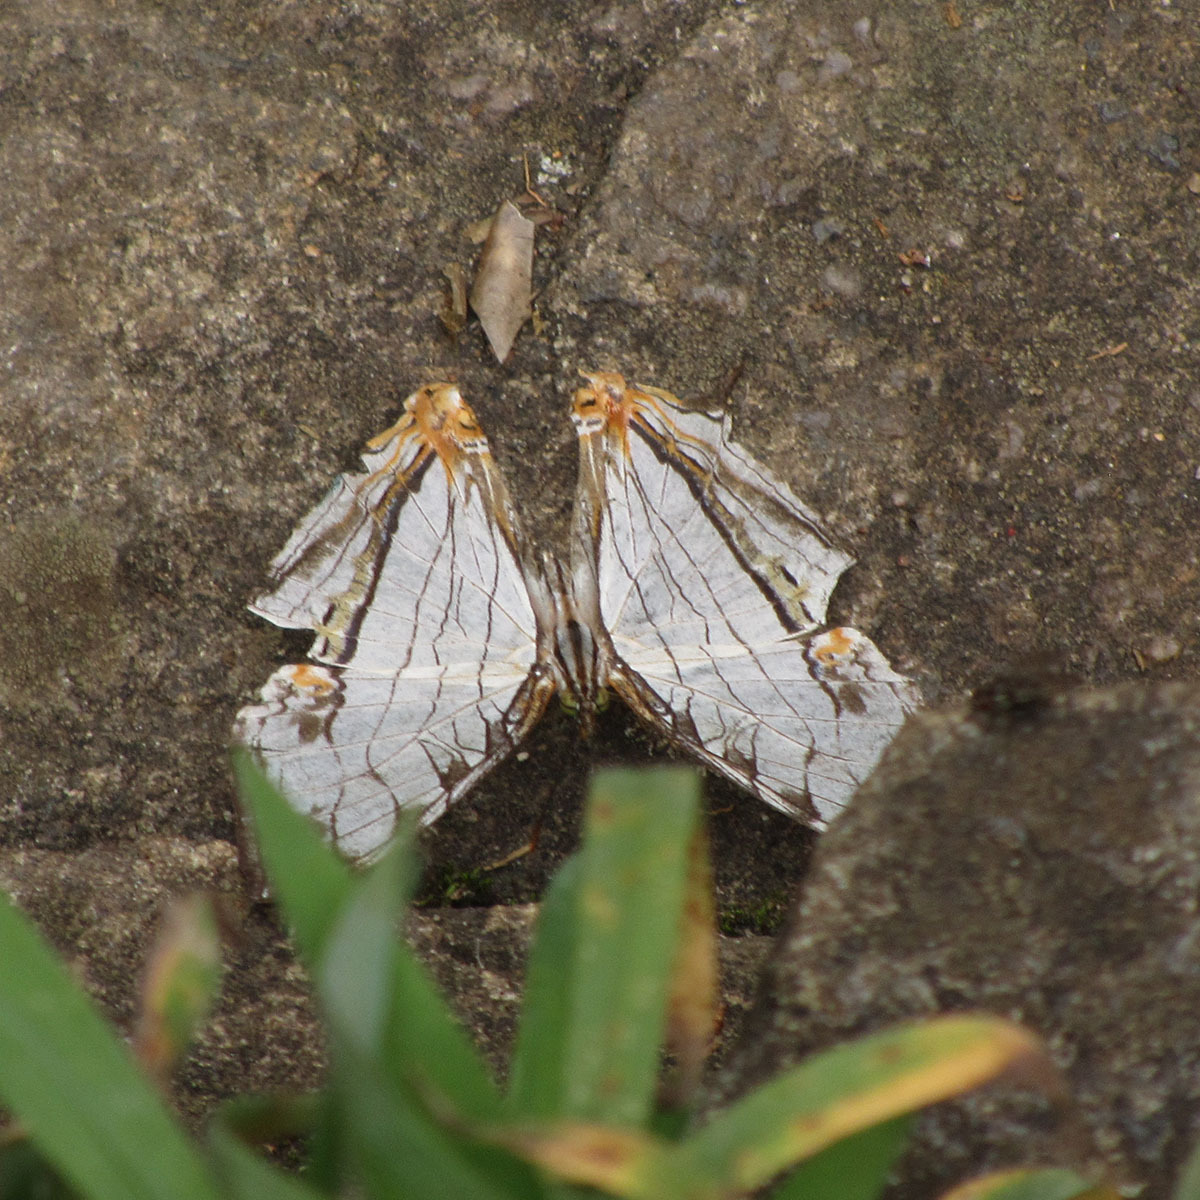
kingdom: Animalia
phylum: Arthropoda
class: Insecta
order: Lepidoptera
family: Nymphalidae
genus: Cyrestis
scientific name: Cyrestis thyodamas
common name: Common mapwing
